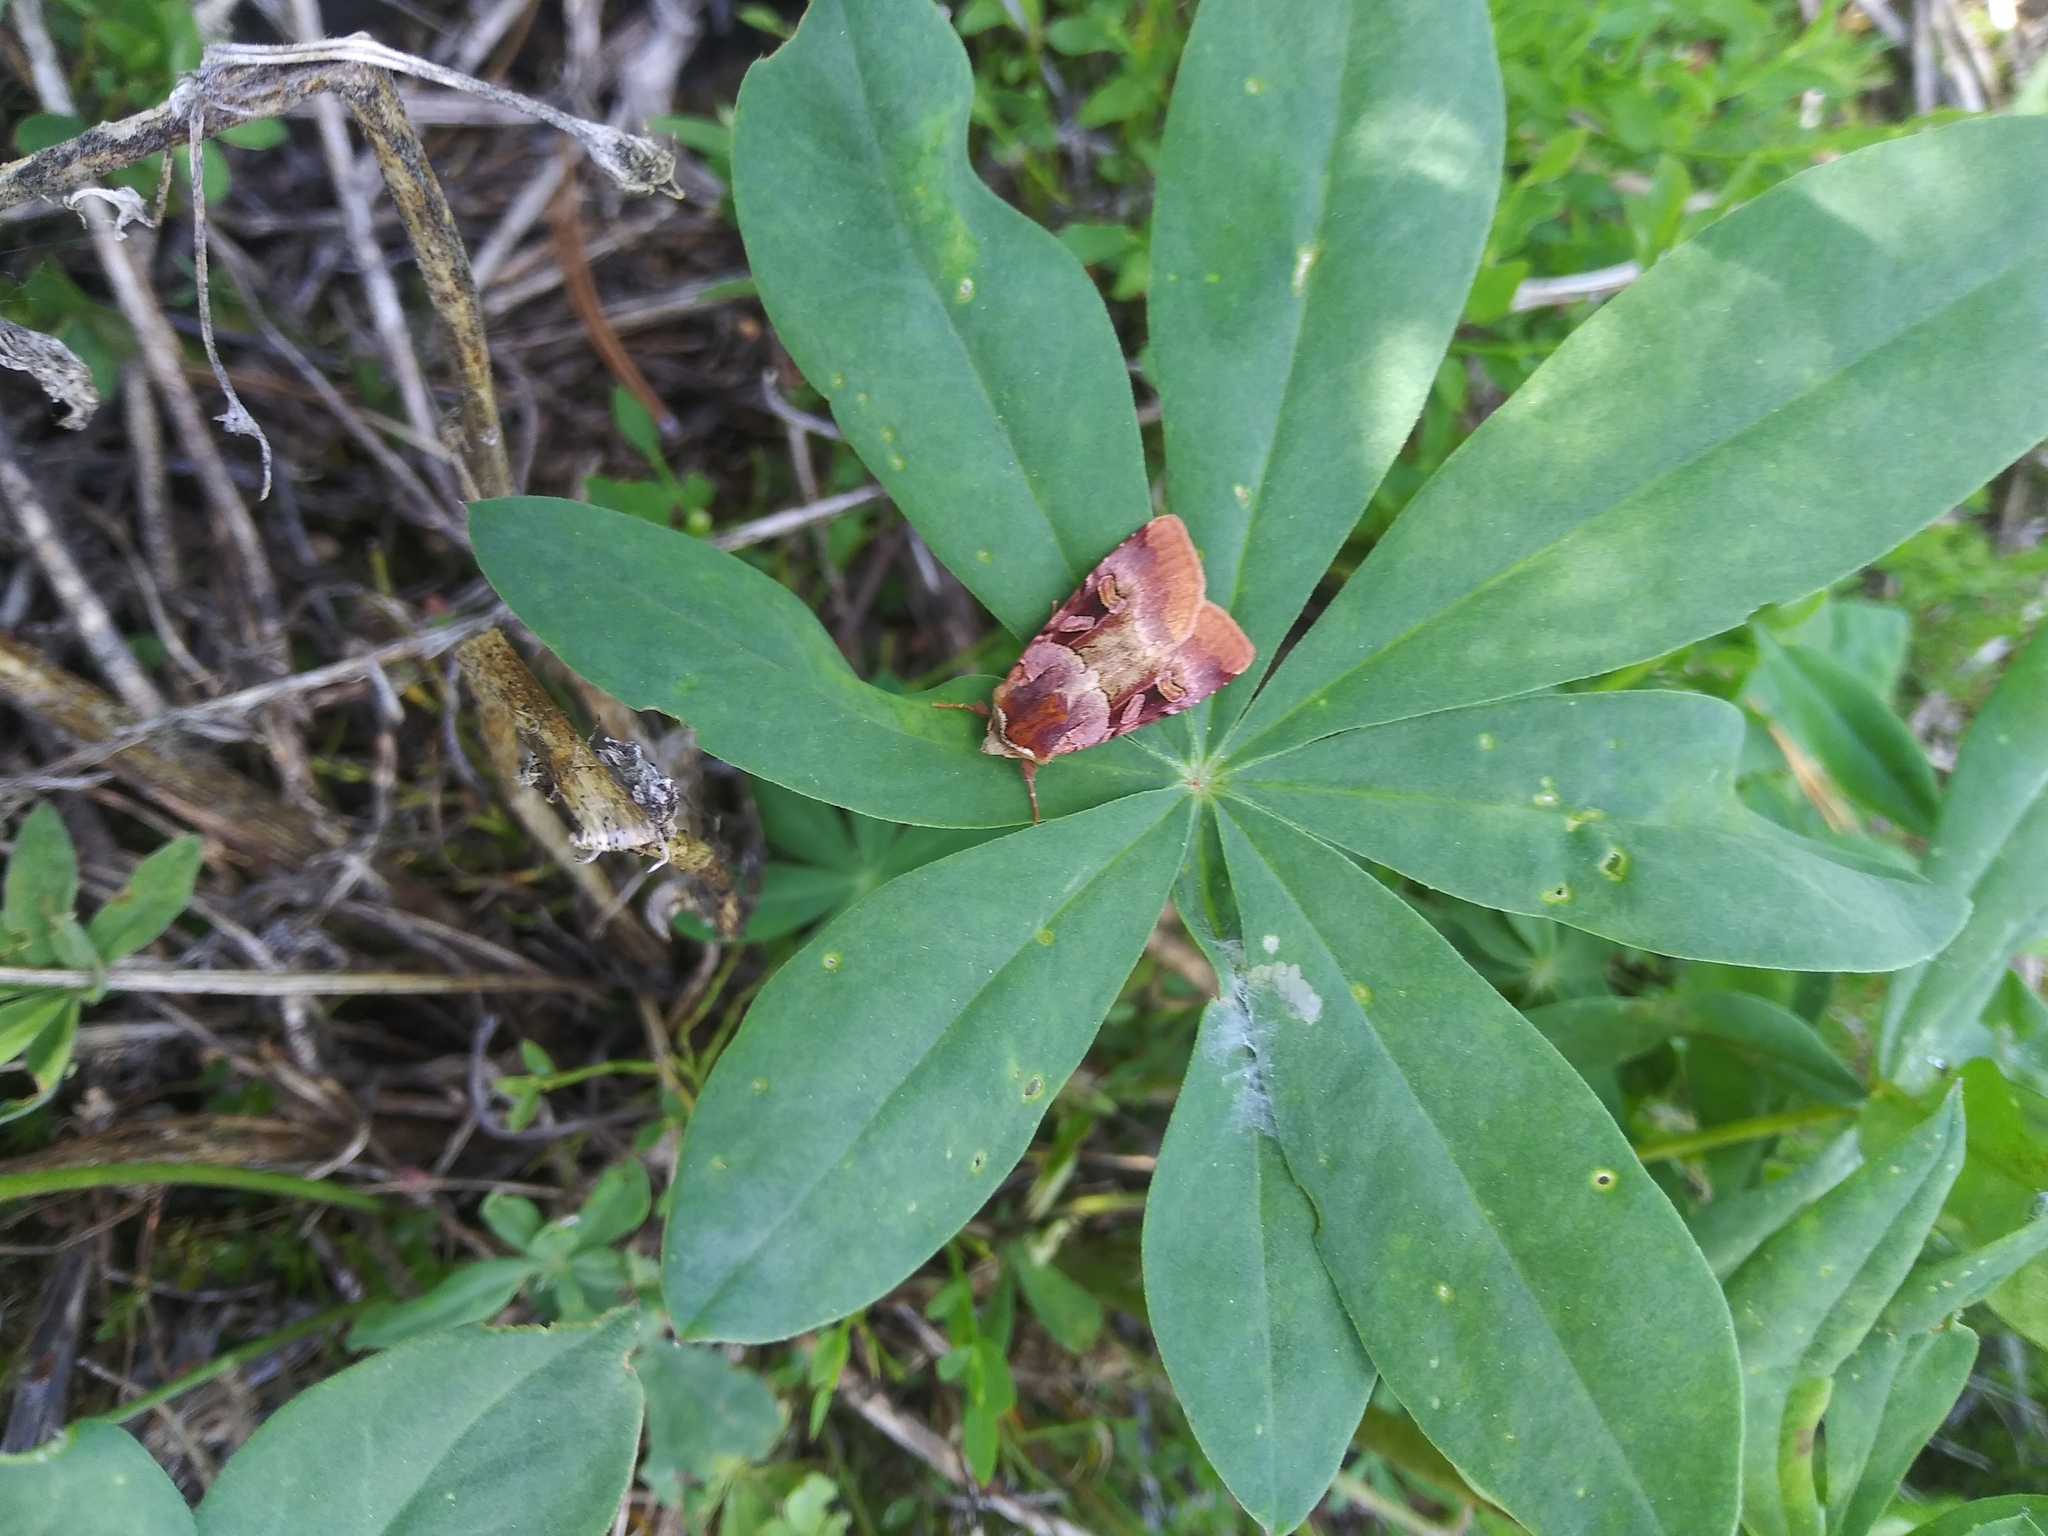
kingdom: Animalia
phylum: Arthropoda
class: Insecta
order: Lepidoptera
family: Noctuidae
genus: Xestia
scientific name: Xestia oblata
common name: Rosy dart
